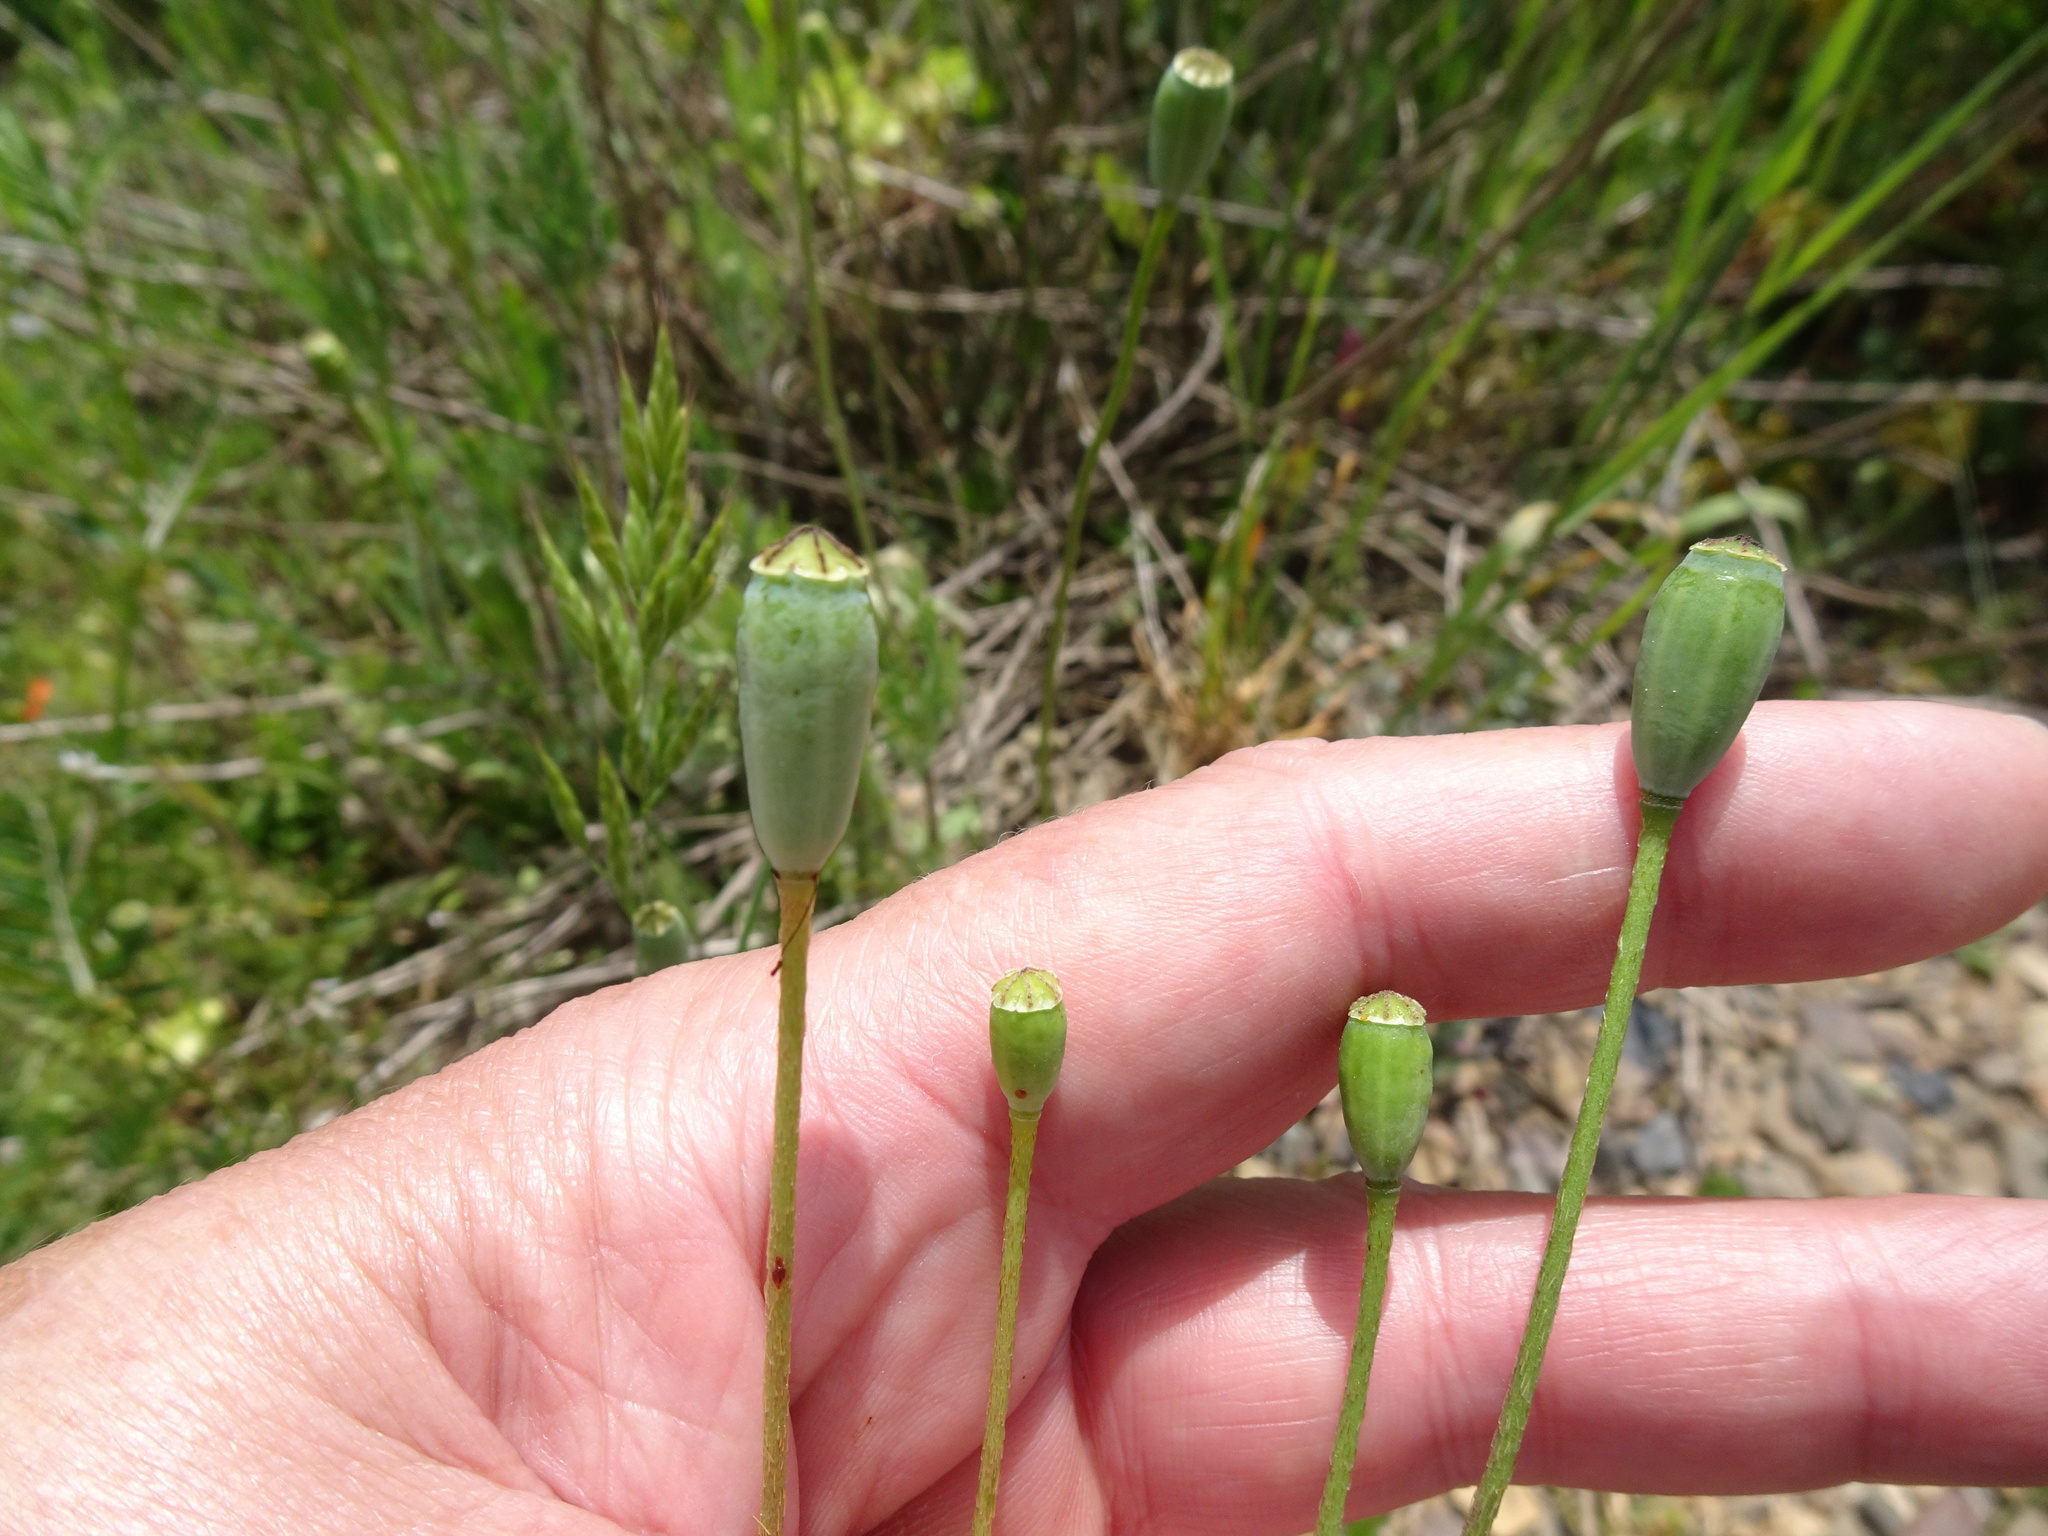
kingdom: Plantae
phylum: Tracheophyta
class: Magnoliopsida
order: Ranunculales
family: Papaveraceae
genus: Papaver
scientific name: Papaver dubium
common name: Long-headed poppy
